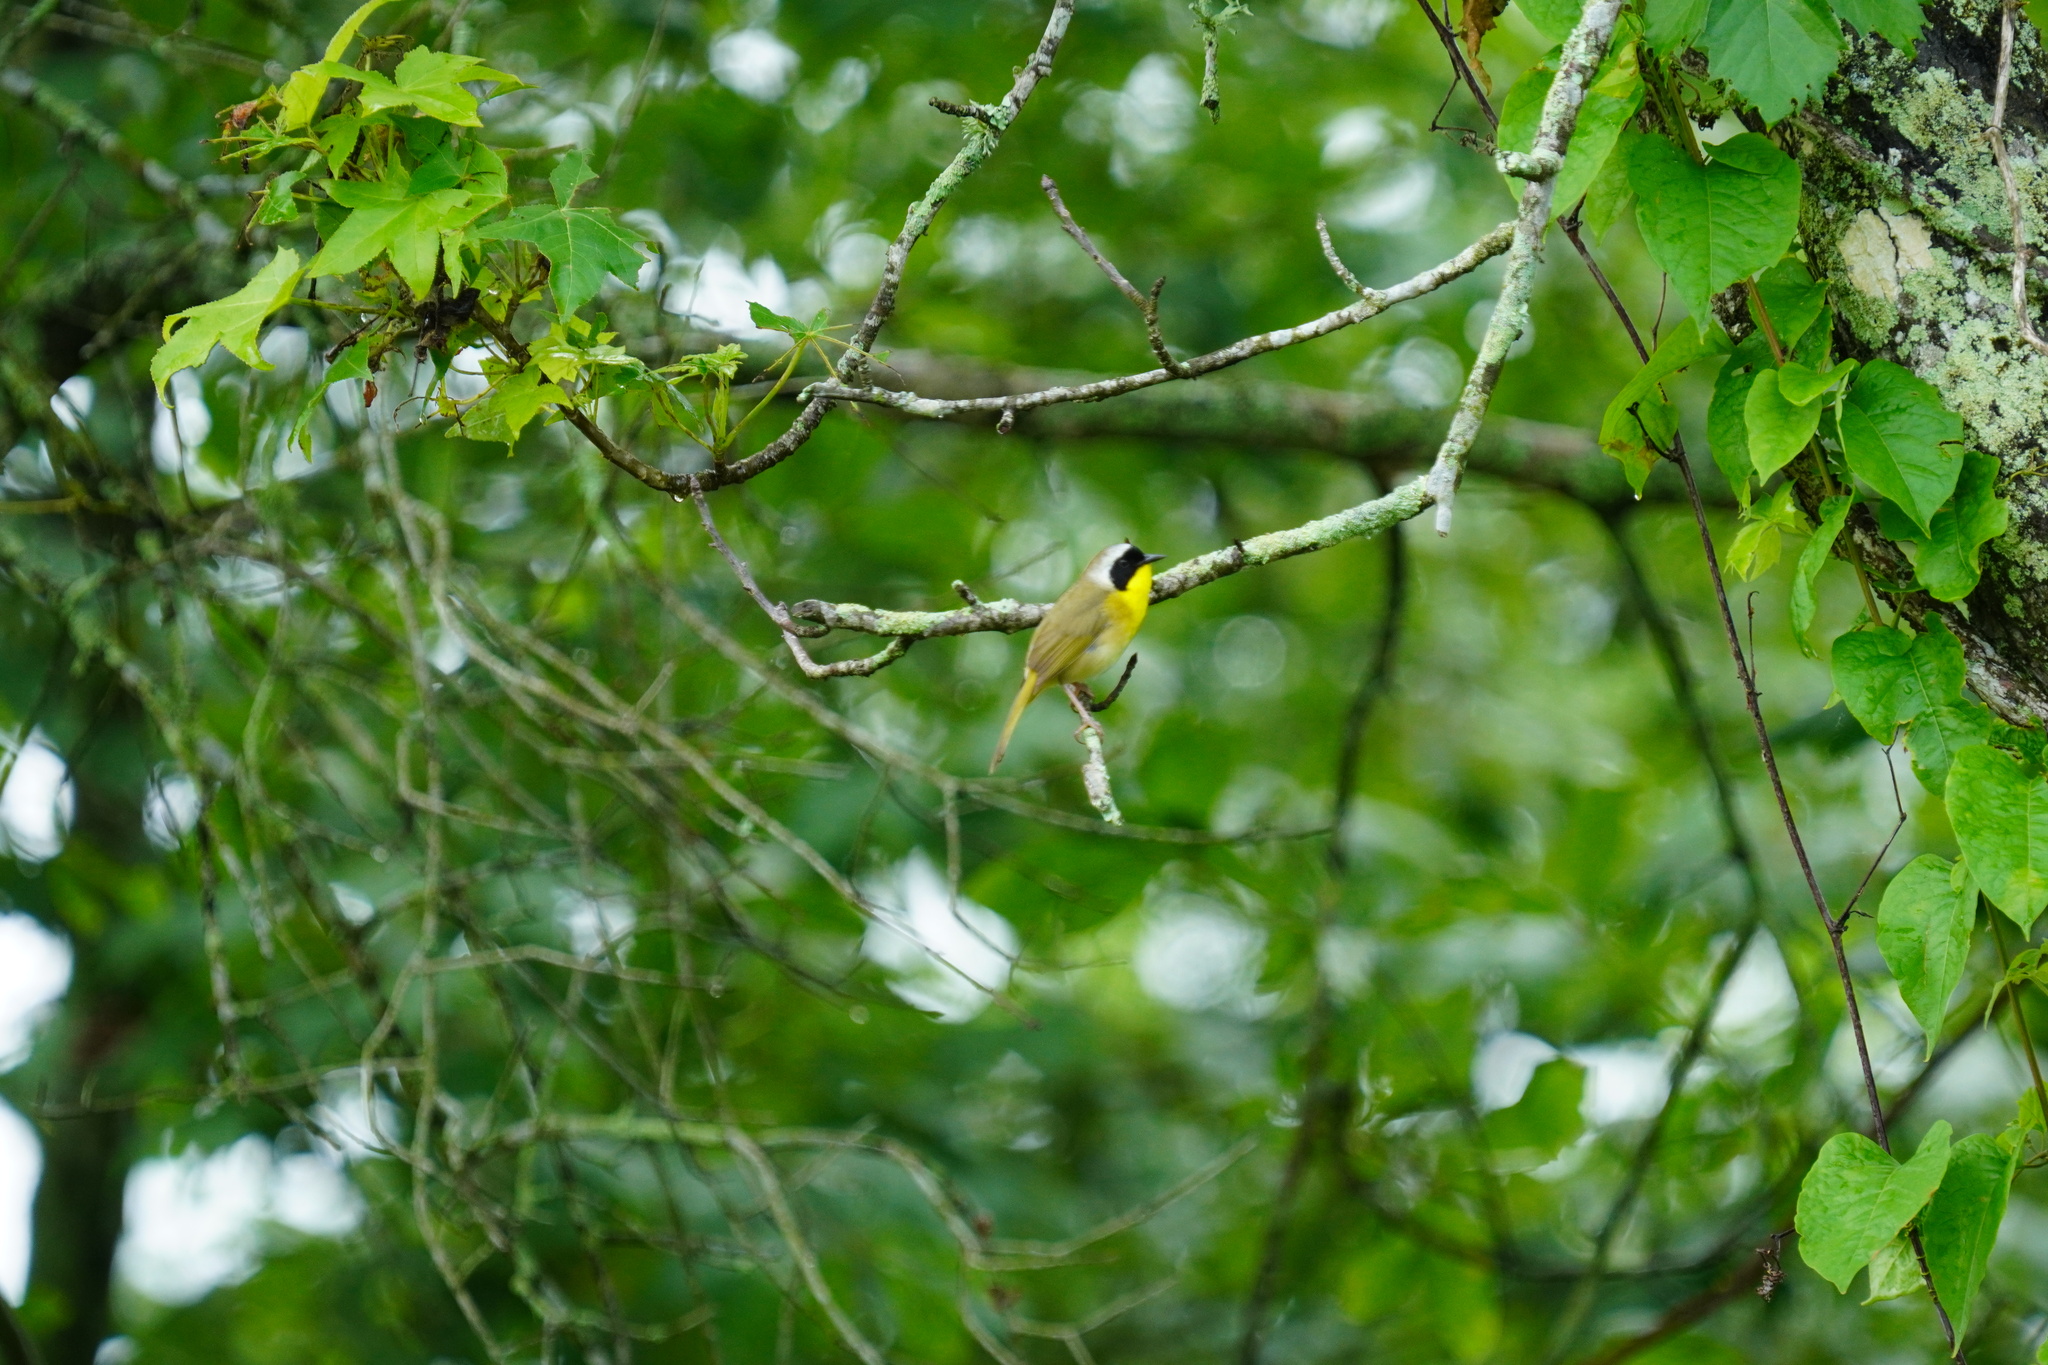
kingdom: Animalia
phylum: Chordata
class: Aves
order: Passeriformes
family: Parulidae
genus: Geothlypis
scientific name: Geothlypis trichas
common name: Common yellowthroat
